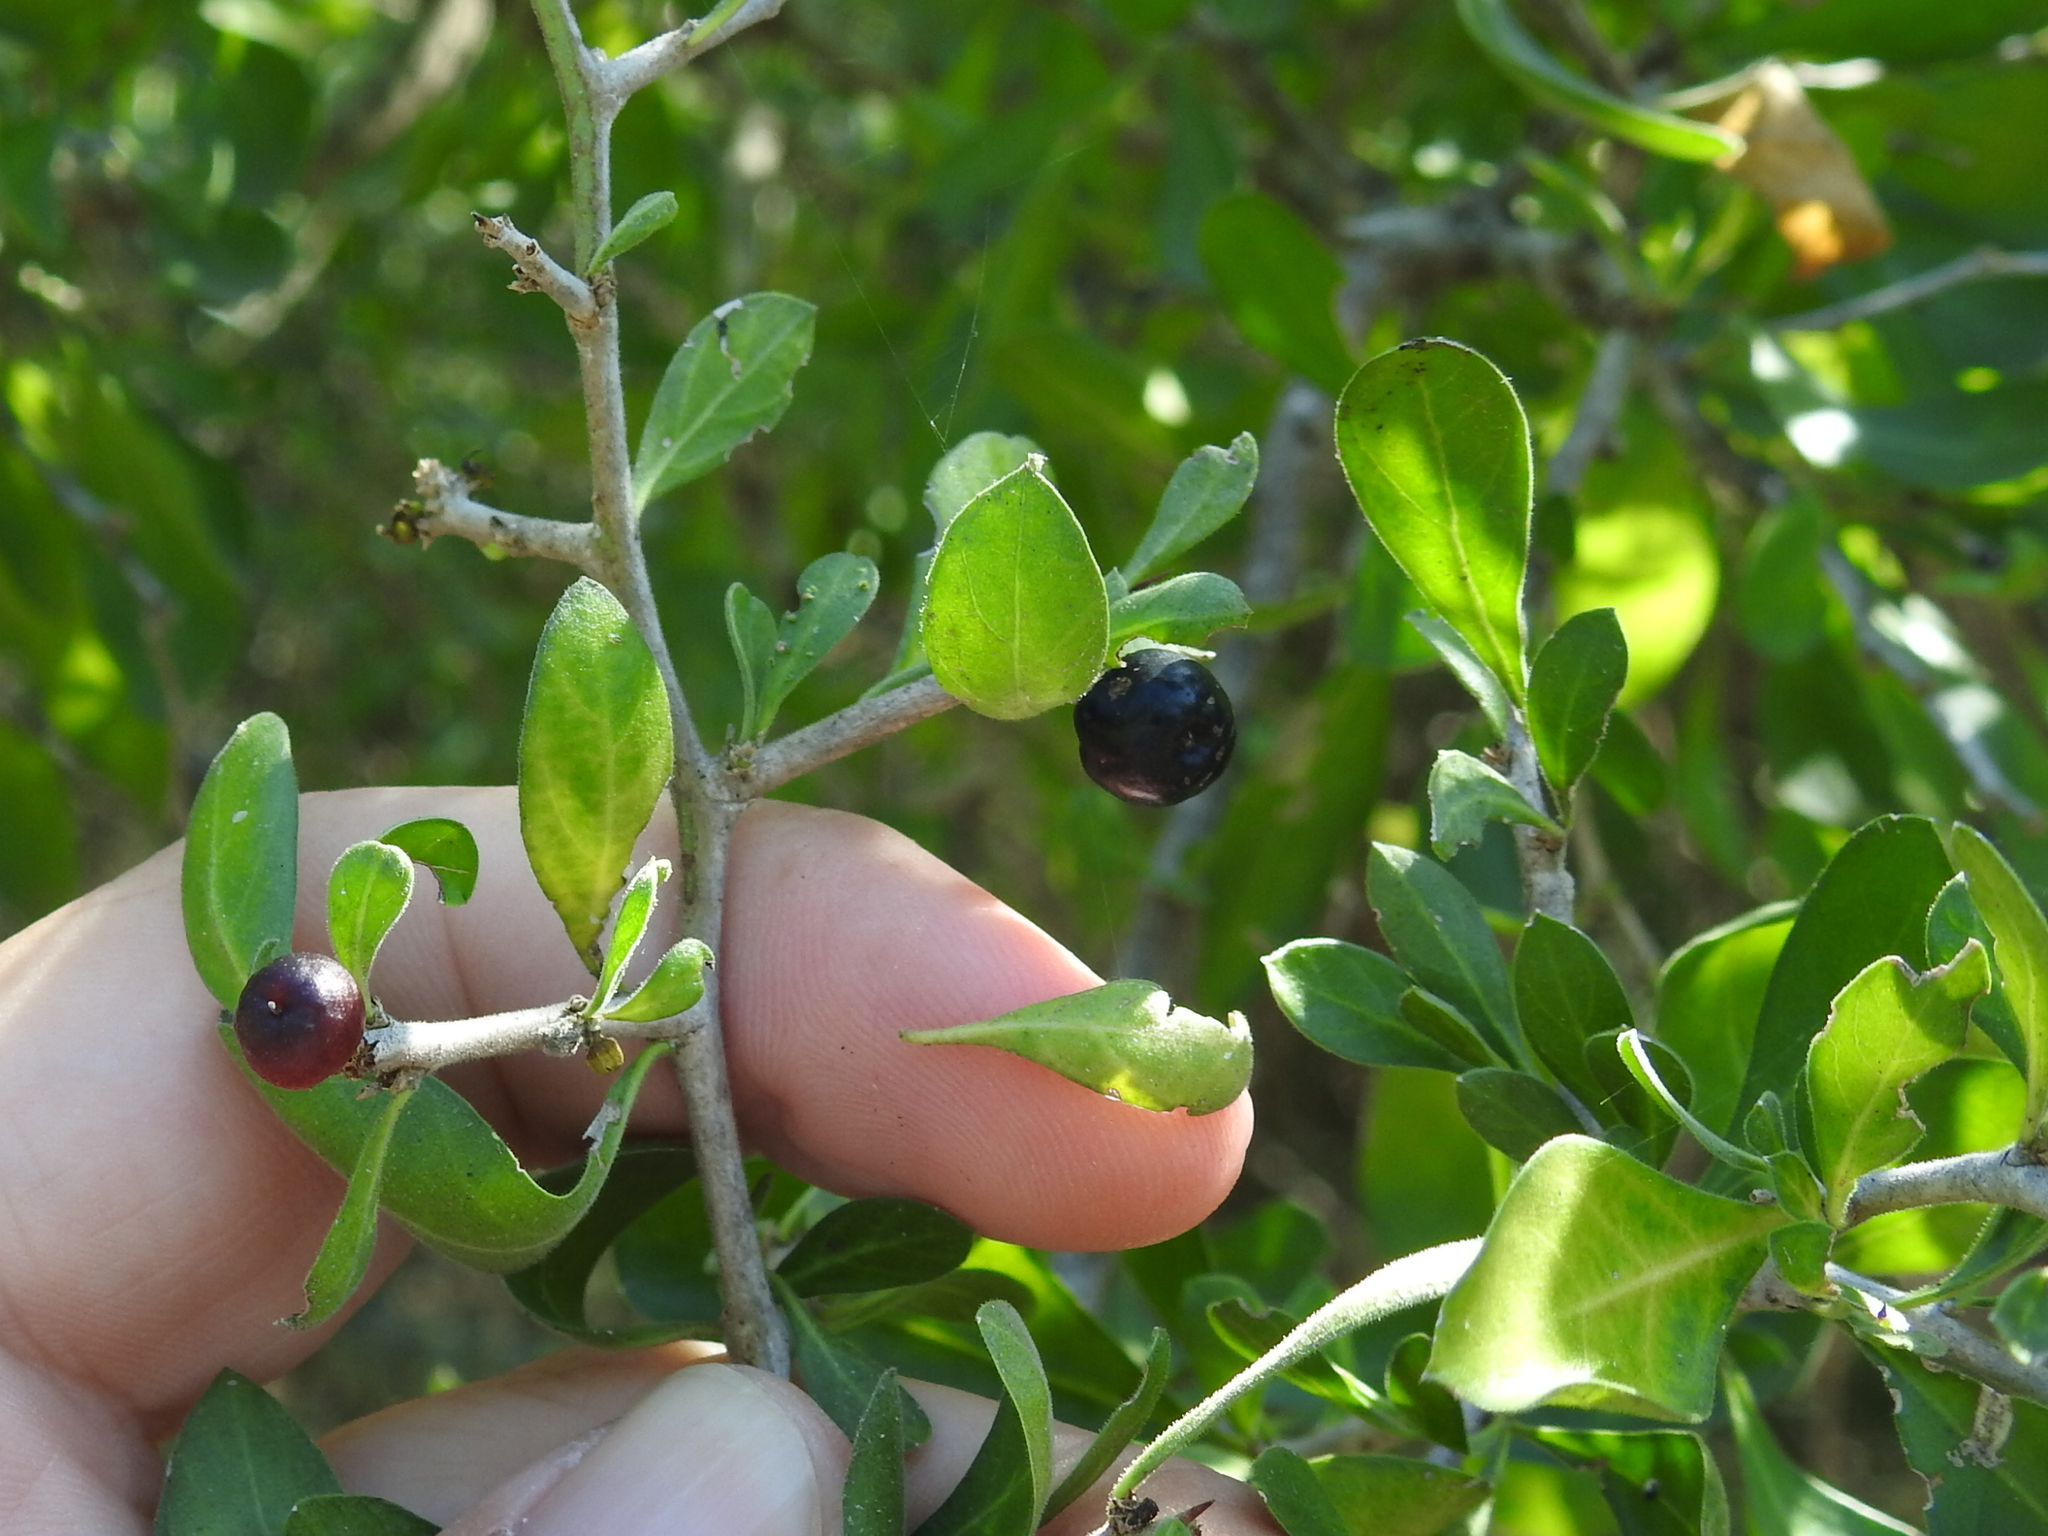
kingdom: Plantae
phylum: Tracheophyta
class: Magnoliopsida
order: Rosales
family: Rhamnaceae
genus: Condalia
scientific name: Condalia hookeri
